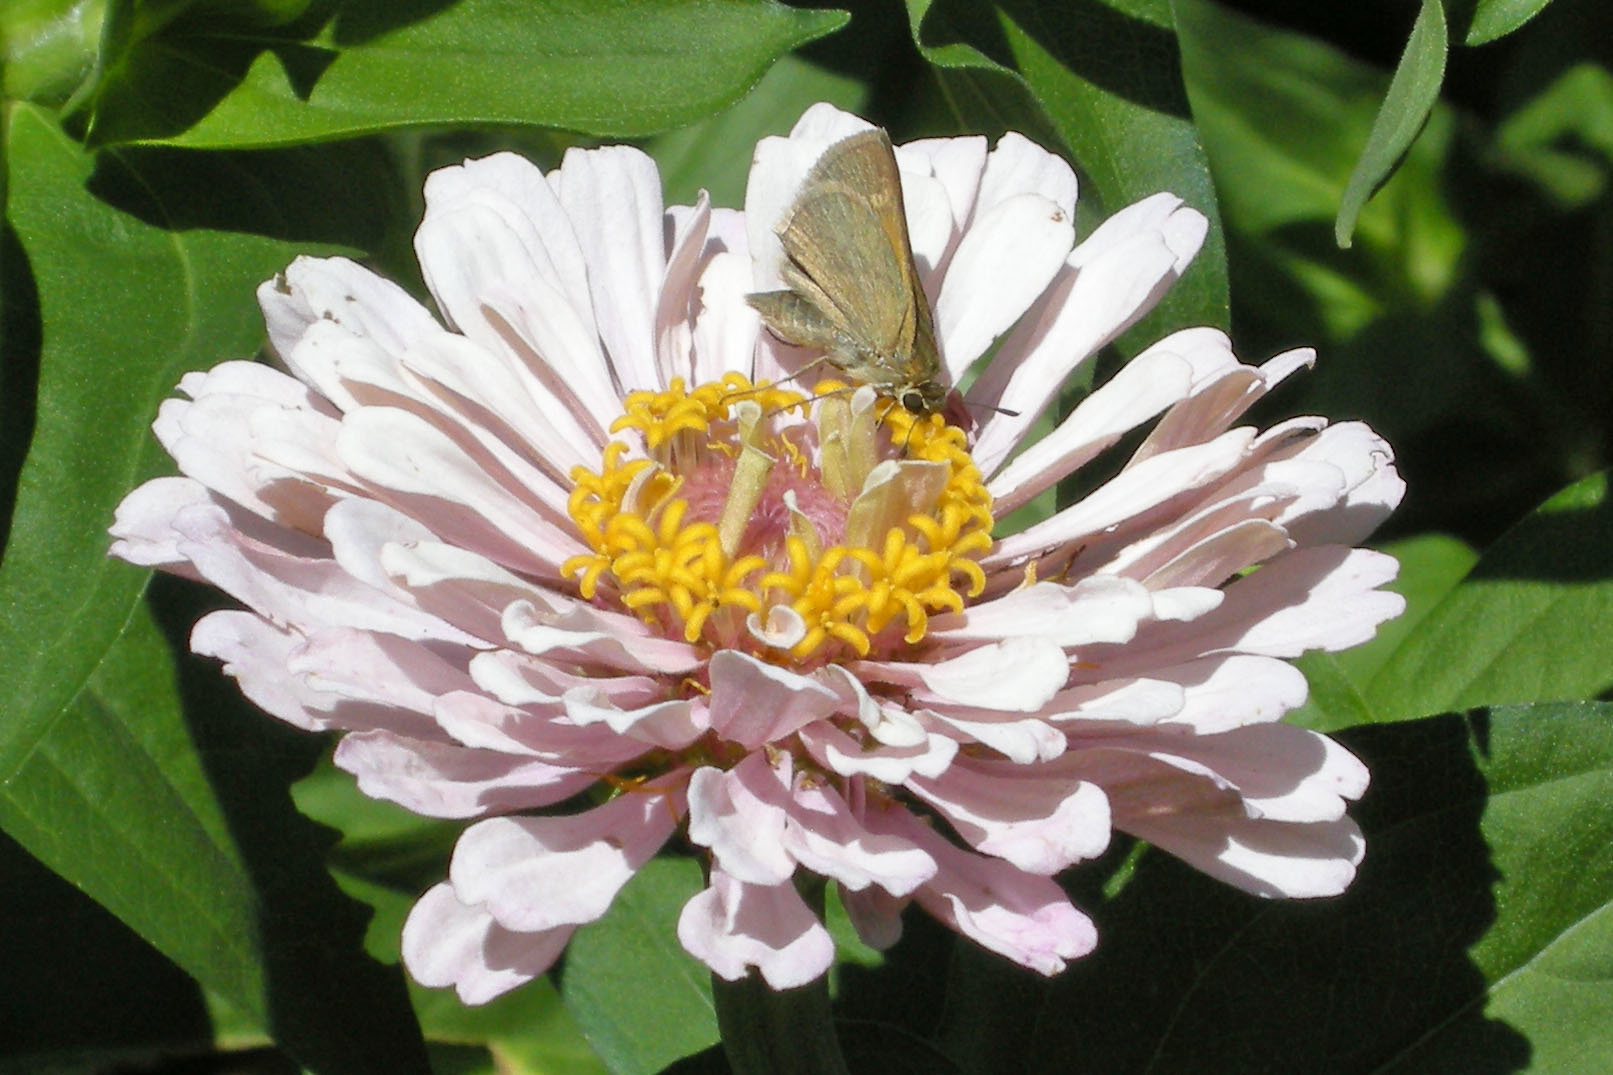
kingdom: Animalia
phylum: Arthropoda
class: Insecta
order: Lepidoptera
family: Hesperiidae
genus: Polites
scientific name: Polites themistocles
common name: Tawny-edged skipper
